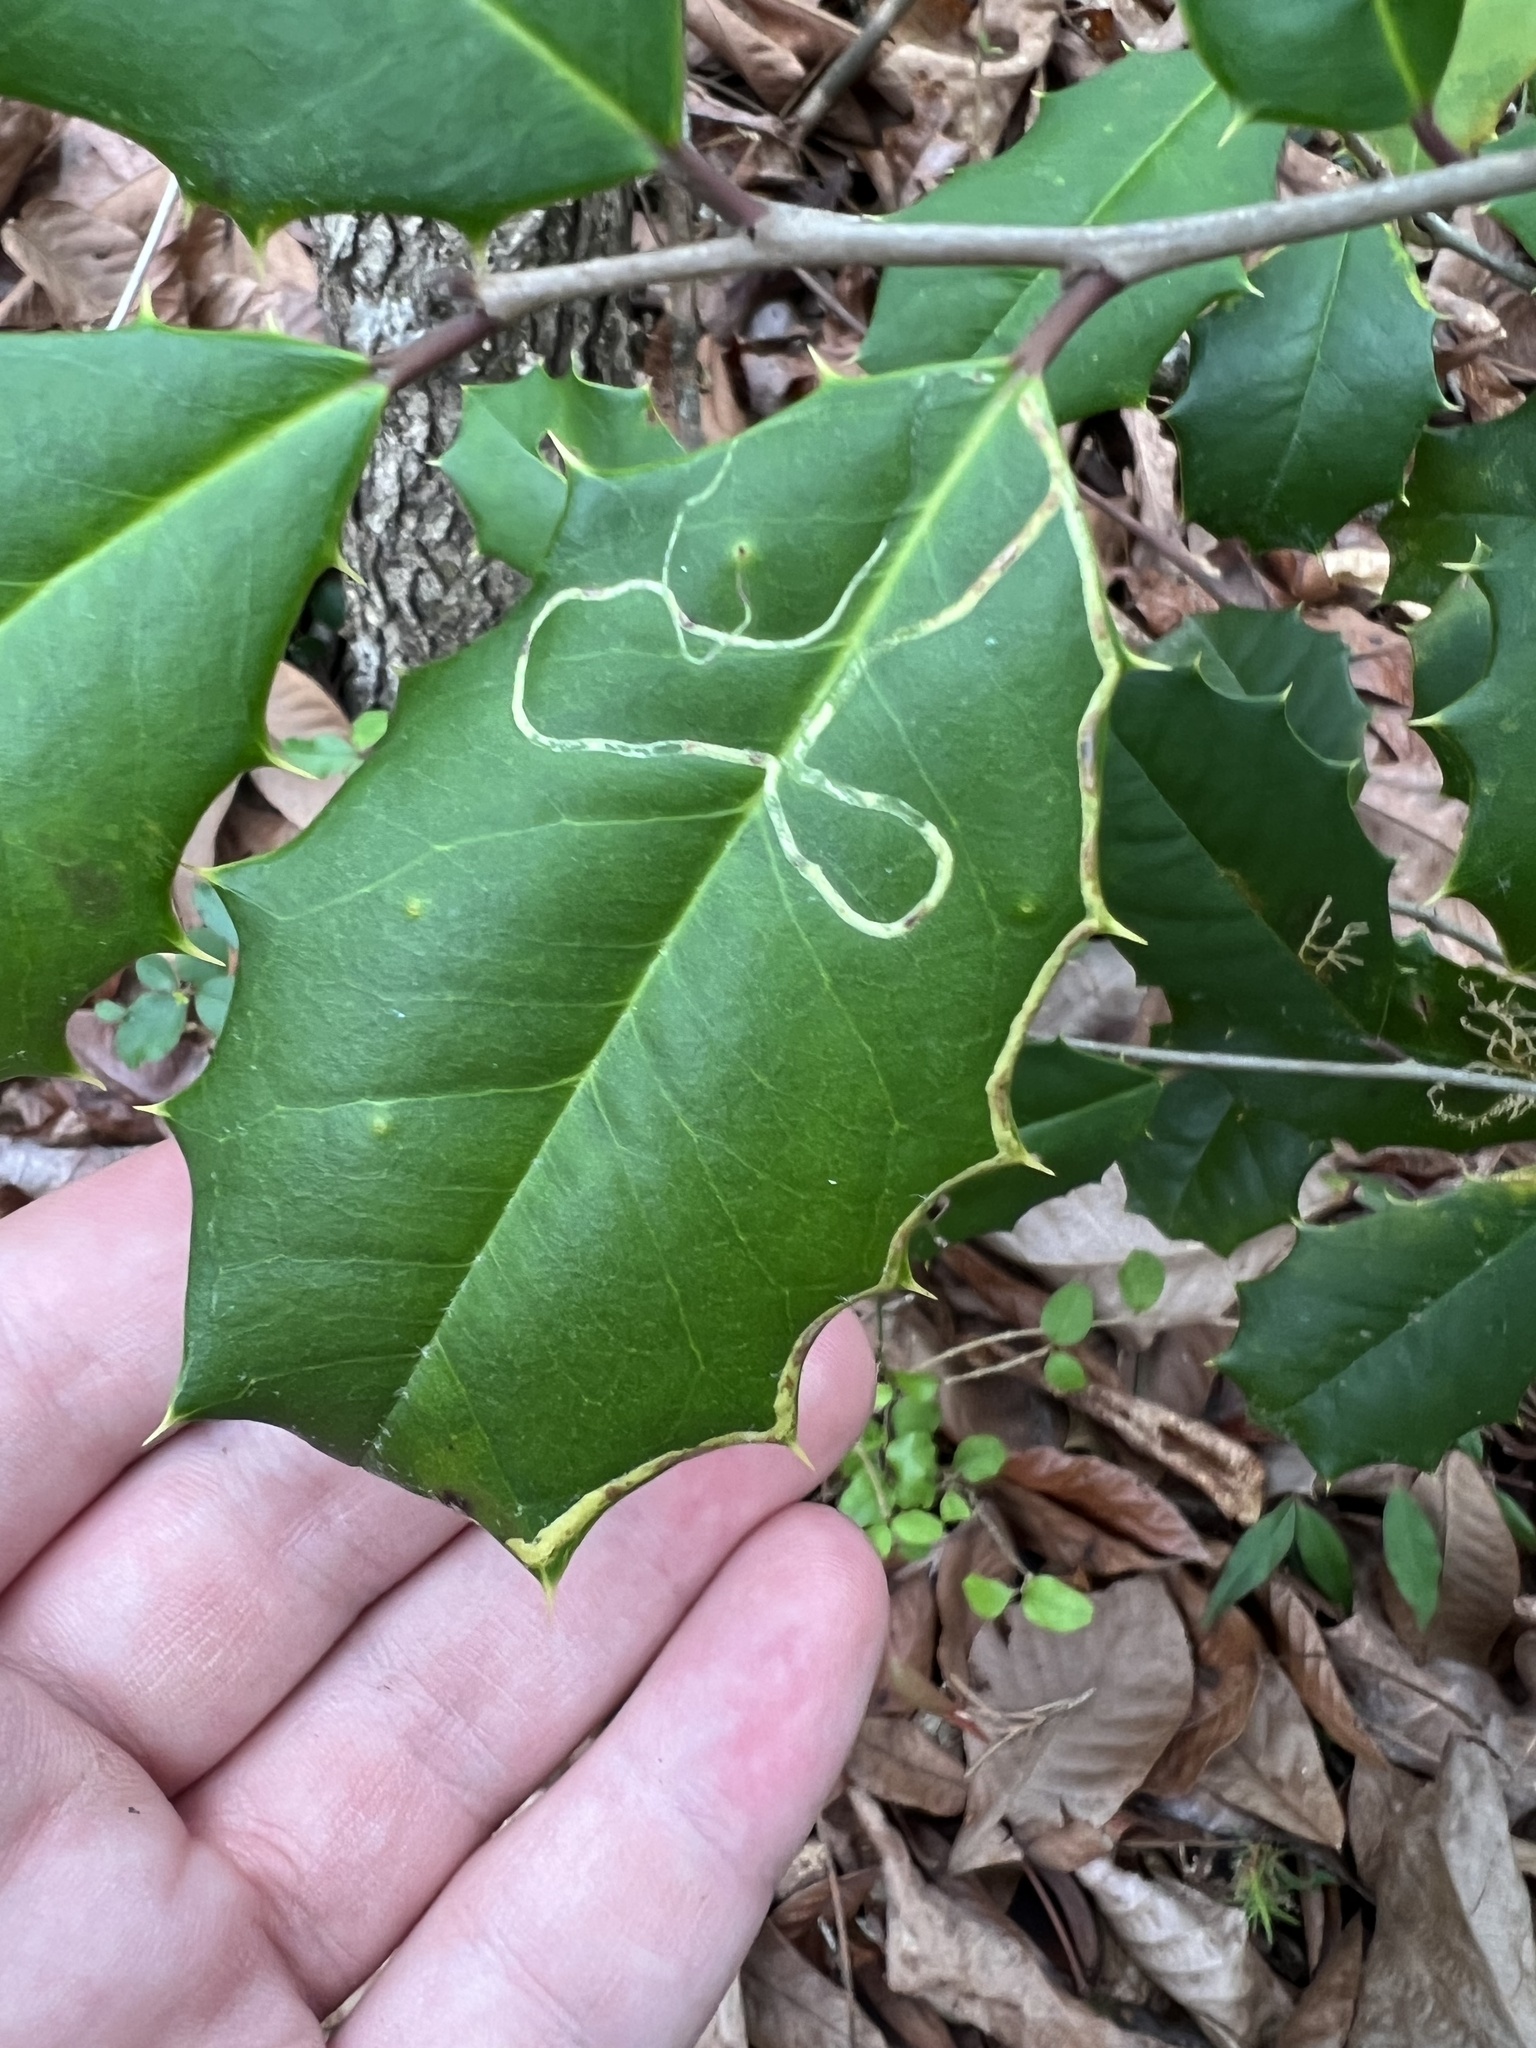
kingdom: Animalia
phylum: Arthropoda
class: Insecta
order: Diptera
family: Agromyzidae
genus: Phytomyza
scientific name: Phytomyza opacae
